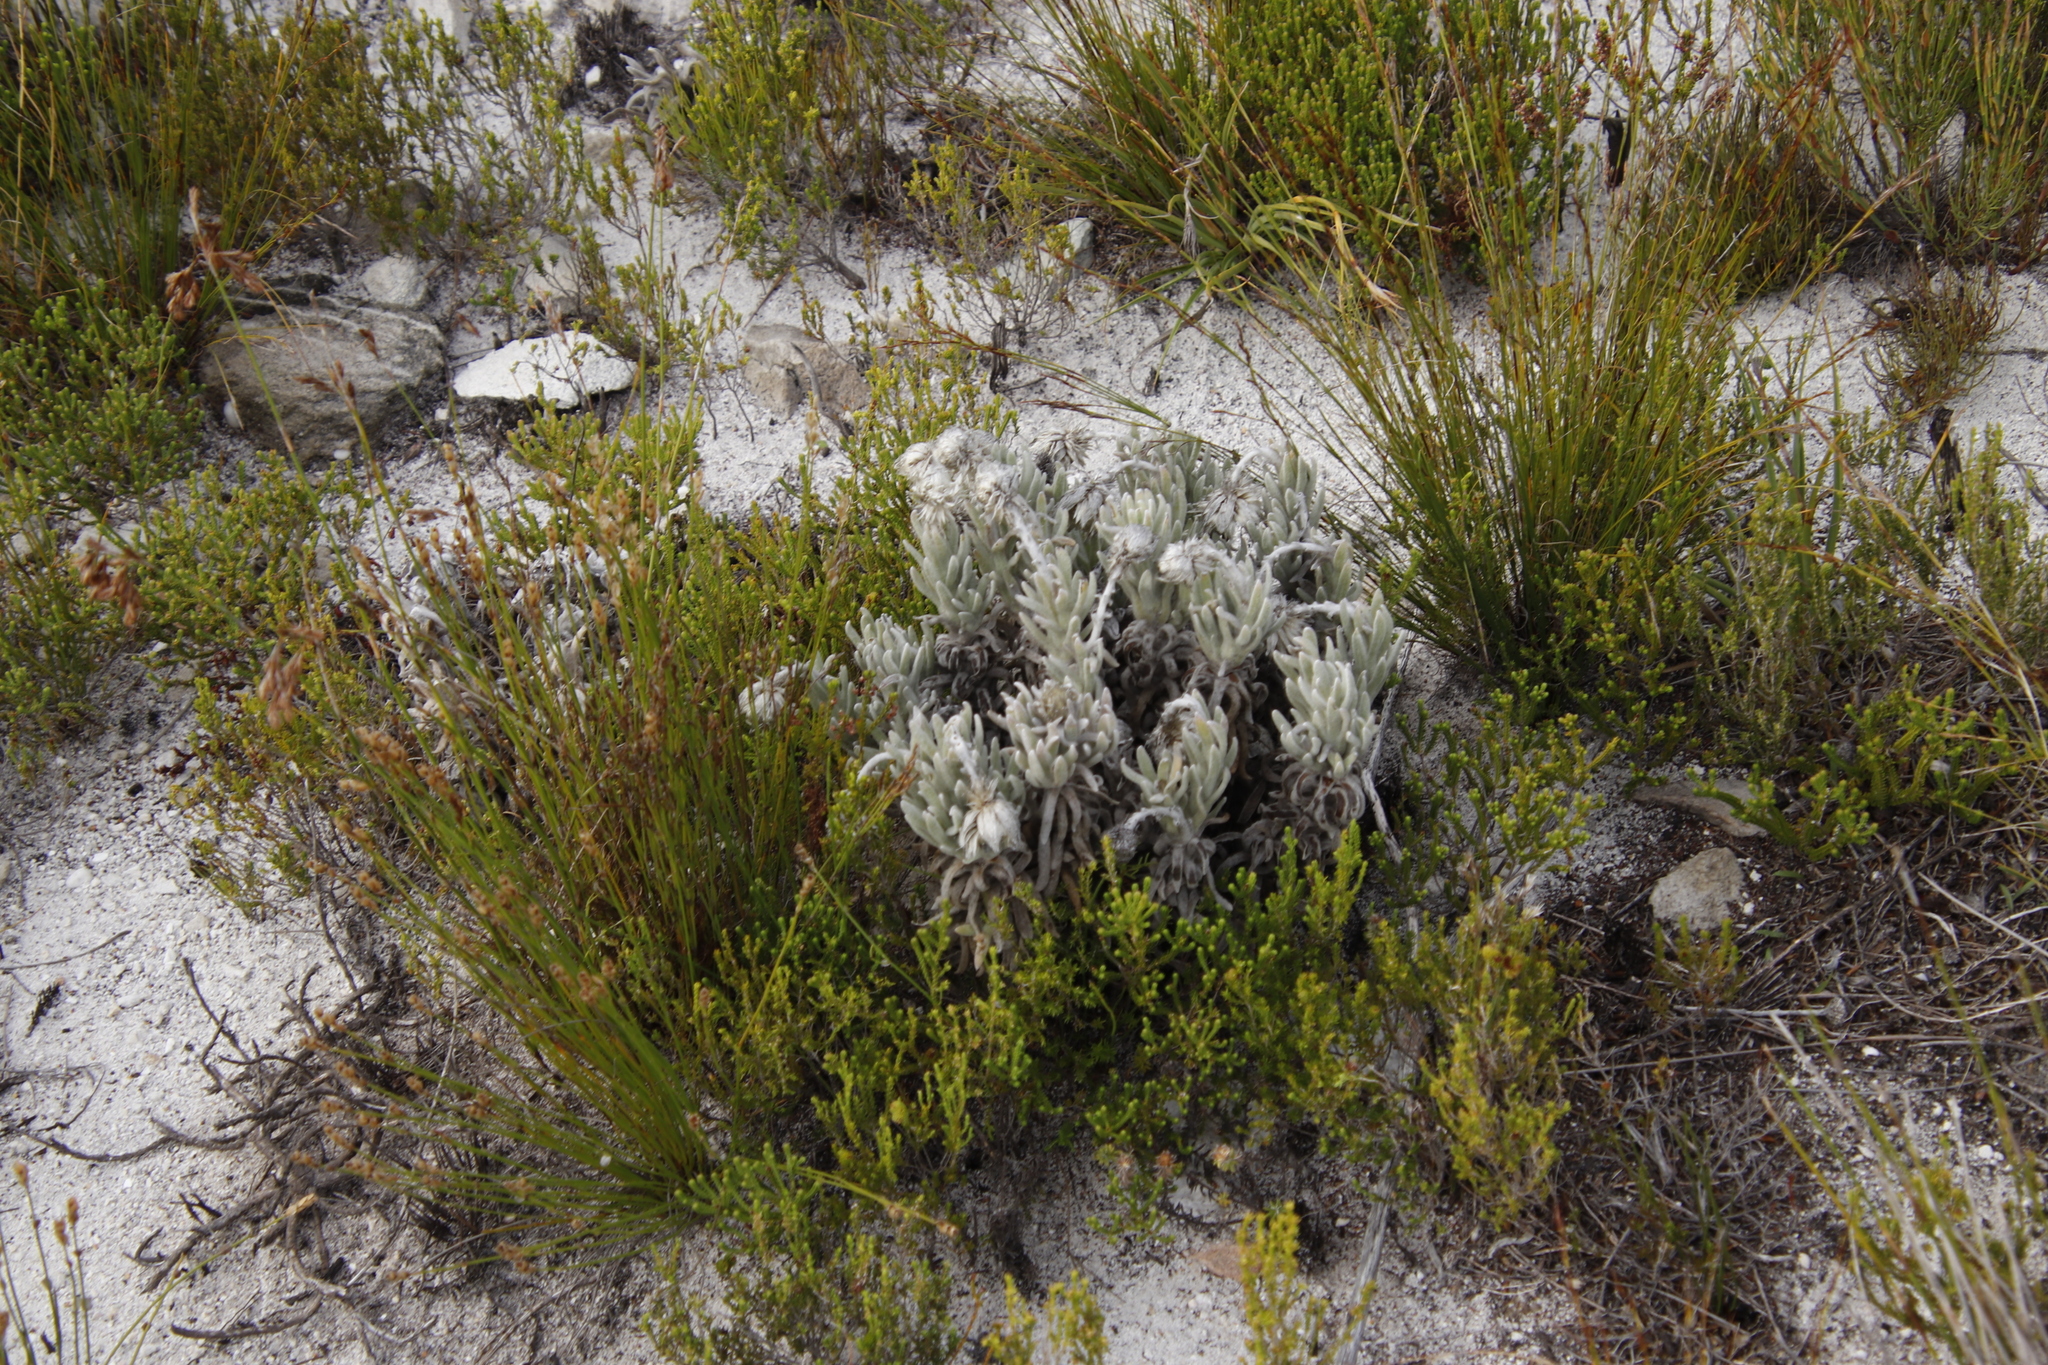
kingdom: Plantae
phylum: Tracheophyta
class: Magnoliopsida
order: Asterales
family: Asteraceae
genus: Syncarpha
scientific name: Syncarpha vestita
